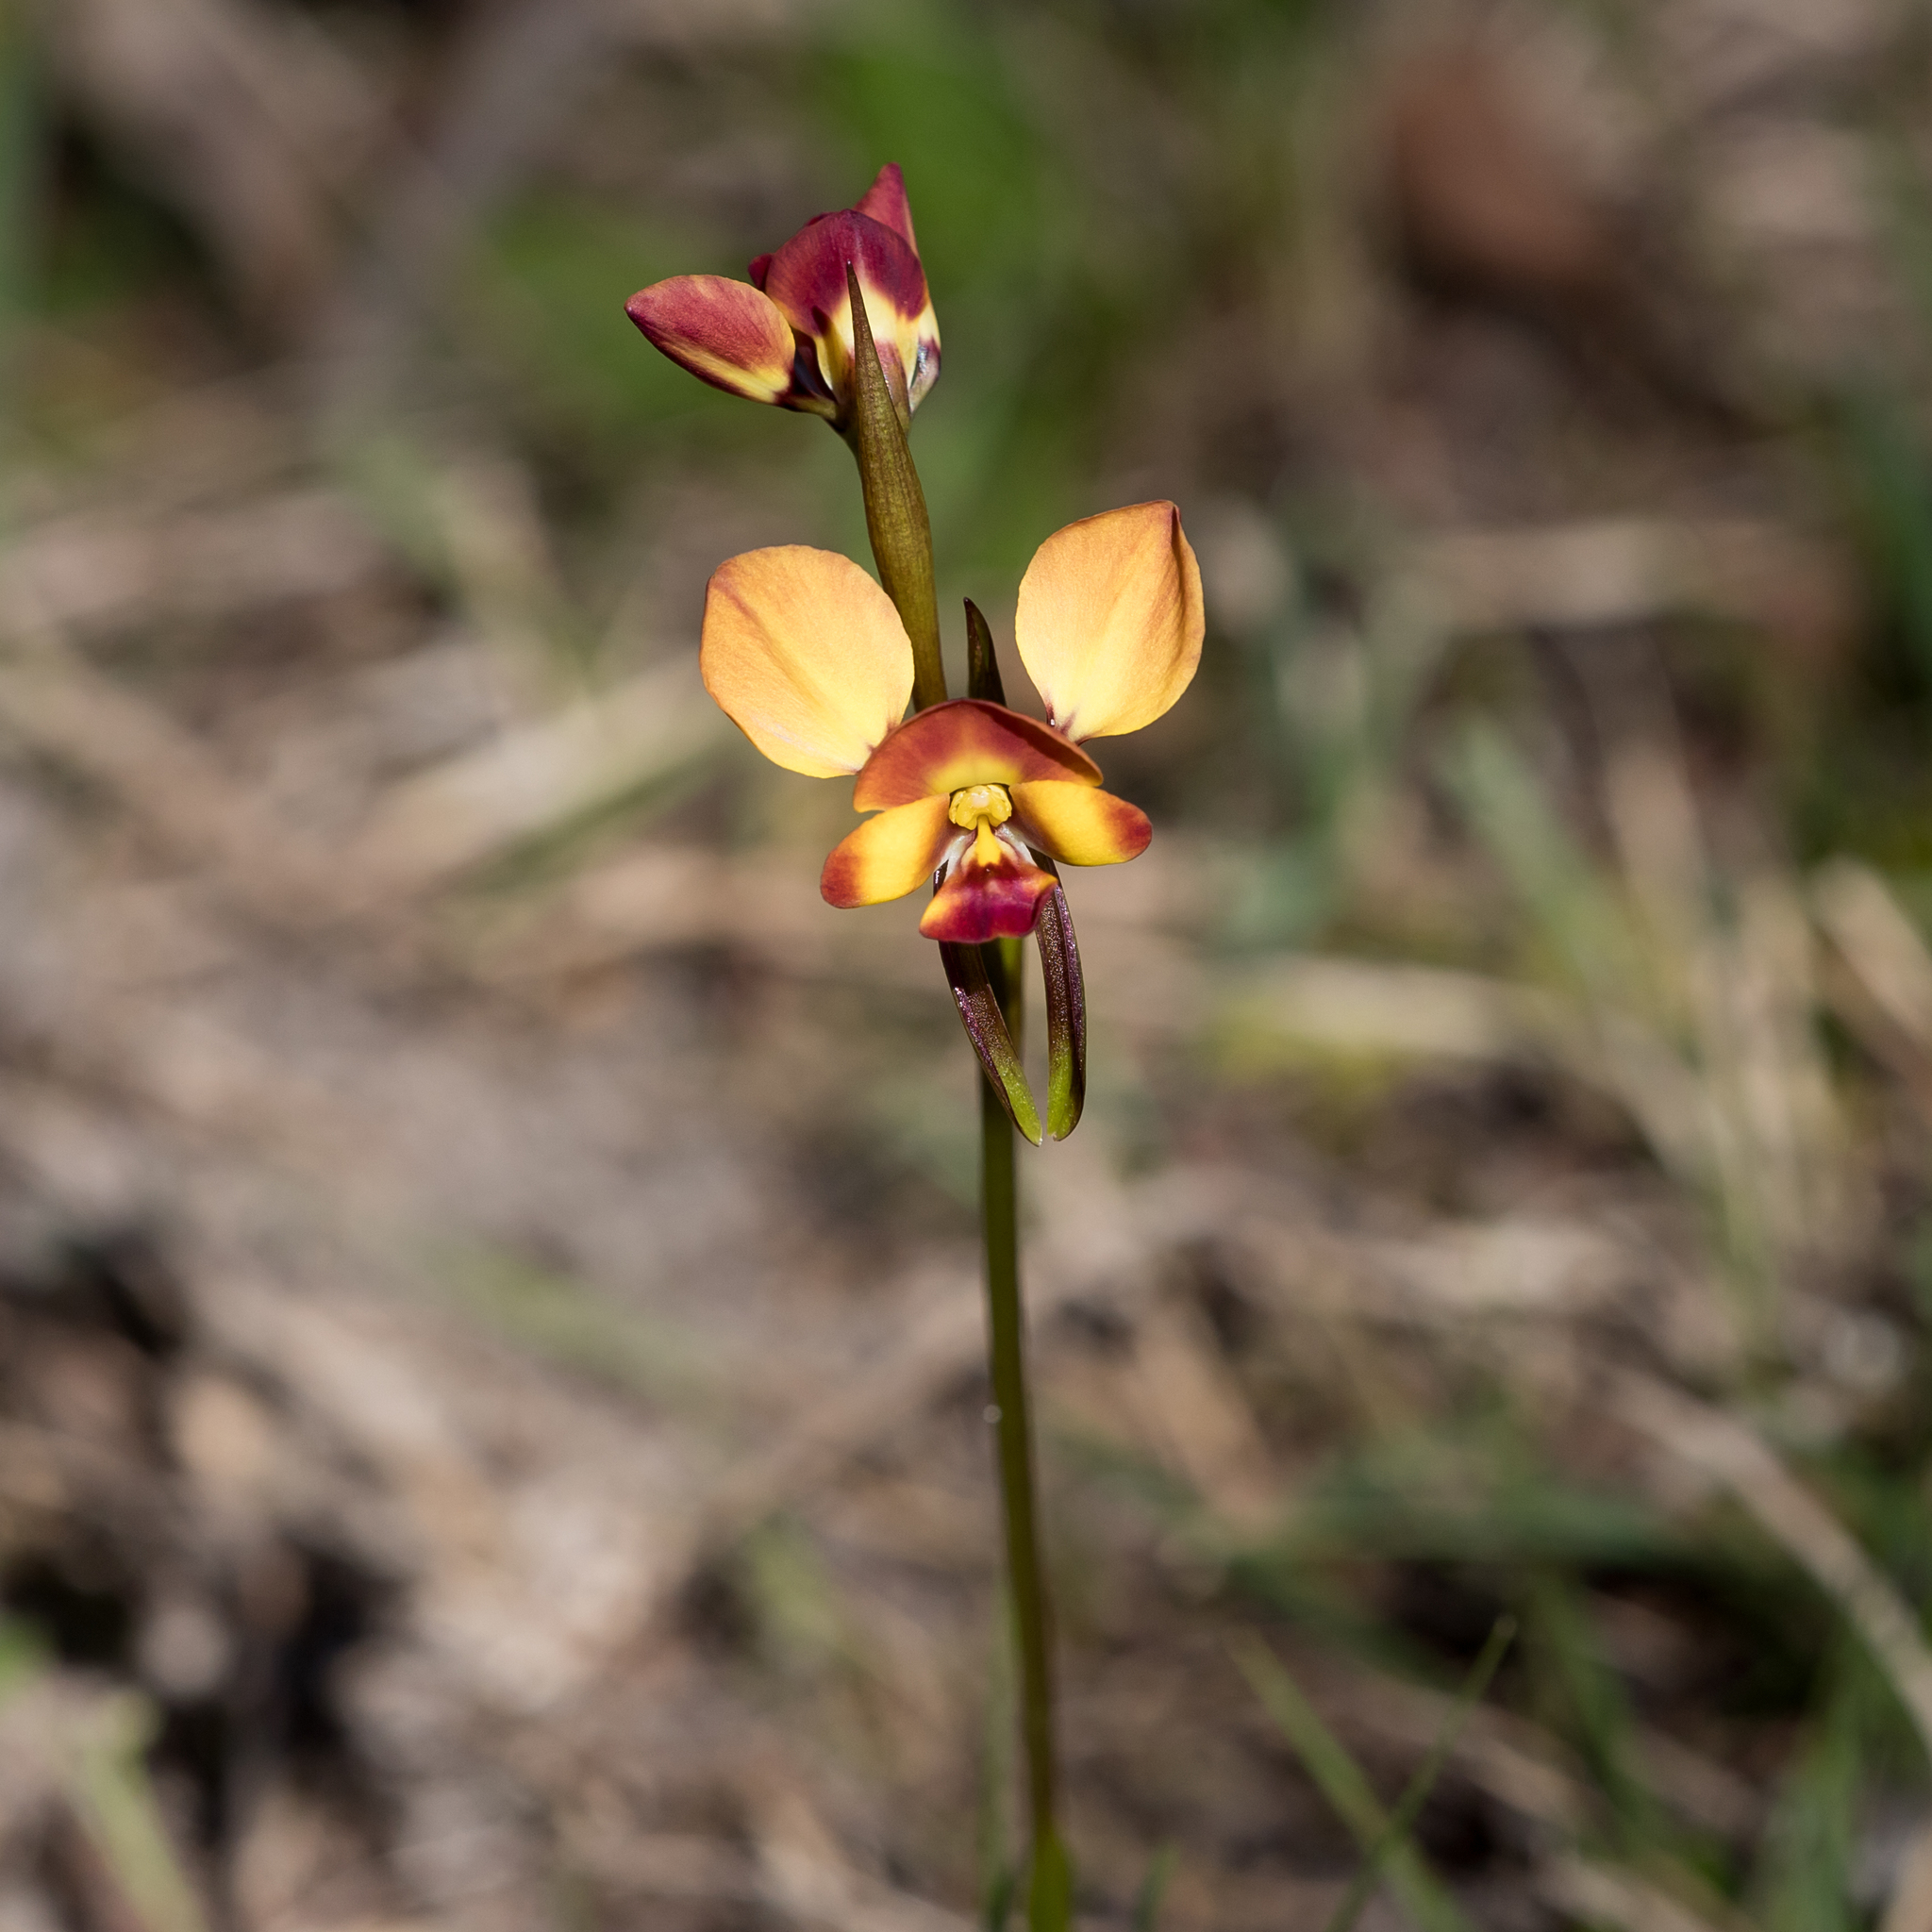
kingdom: Plantae
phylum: Tracheophyta
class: Liliopsida
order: Asparagales
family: Orchidaceae
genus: Diuris
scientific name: Diuris orientis
